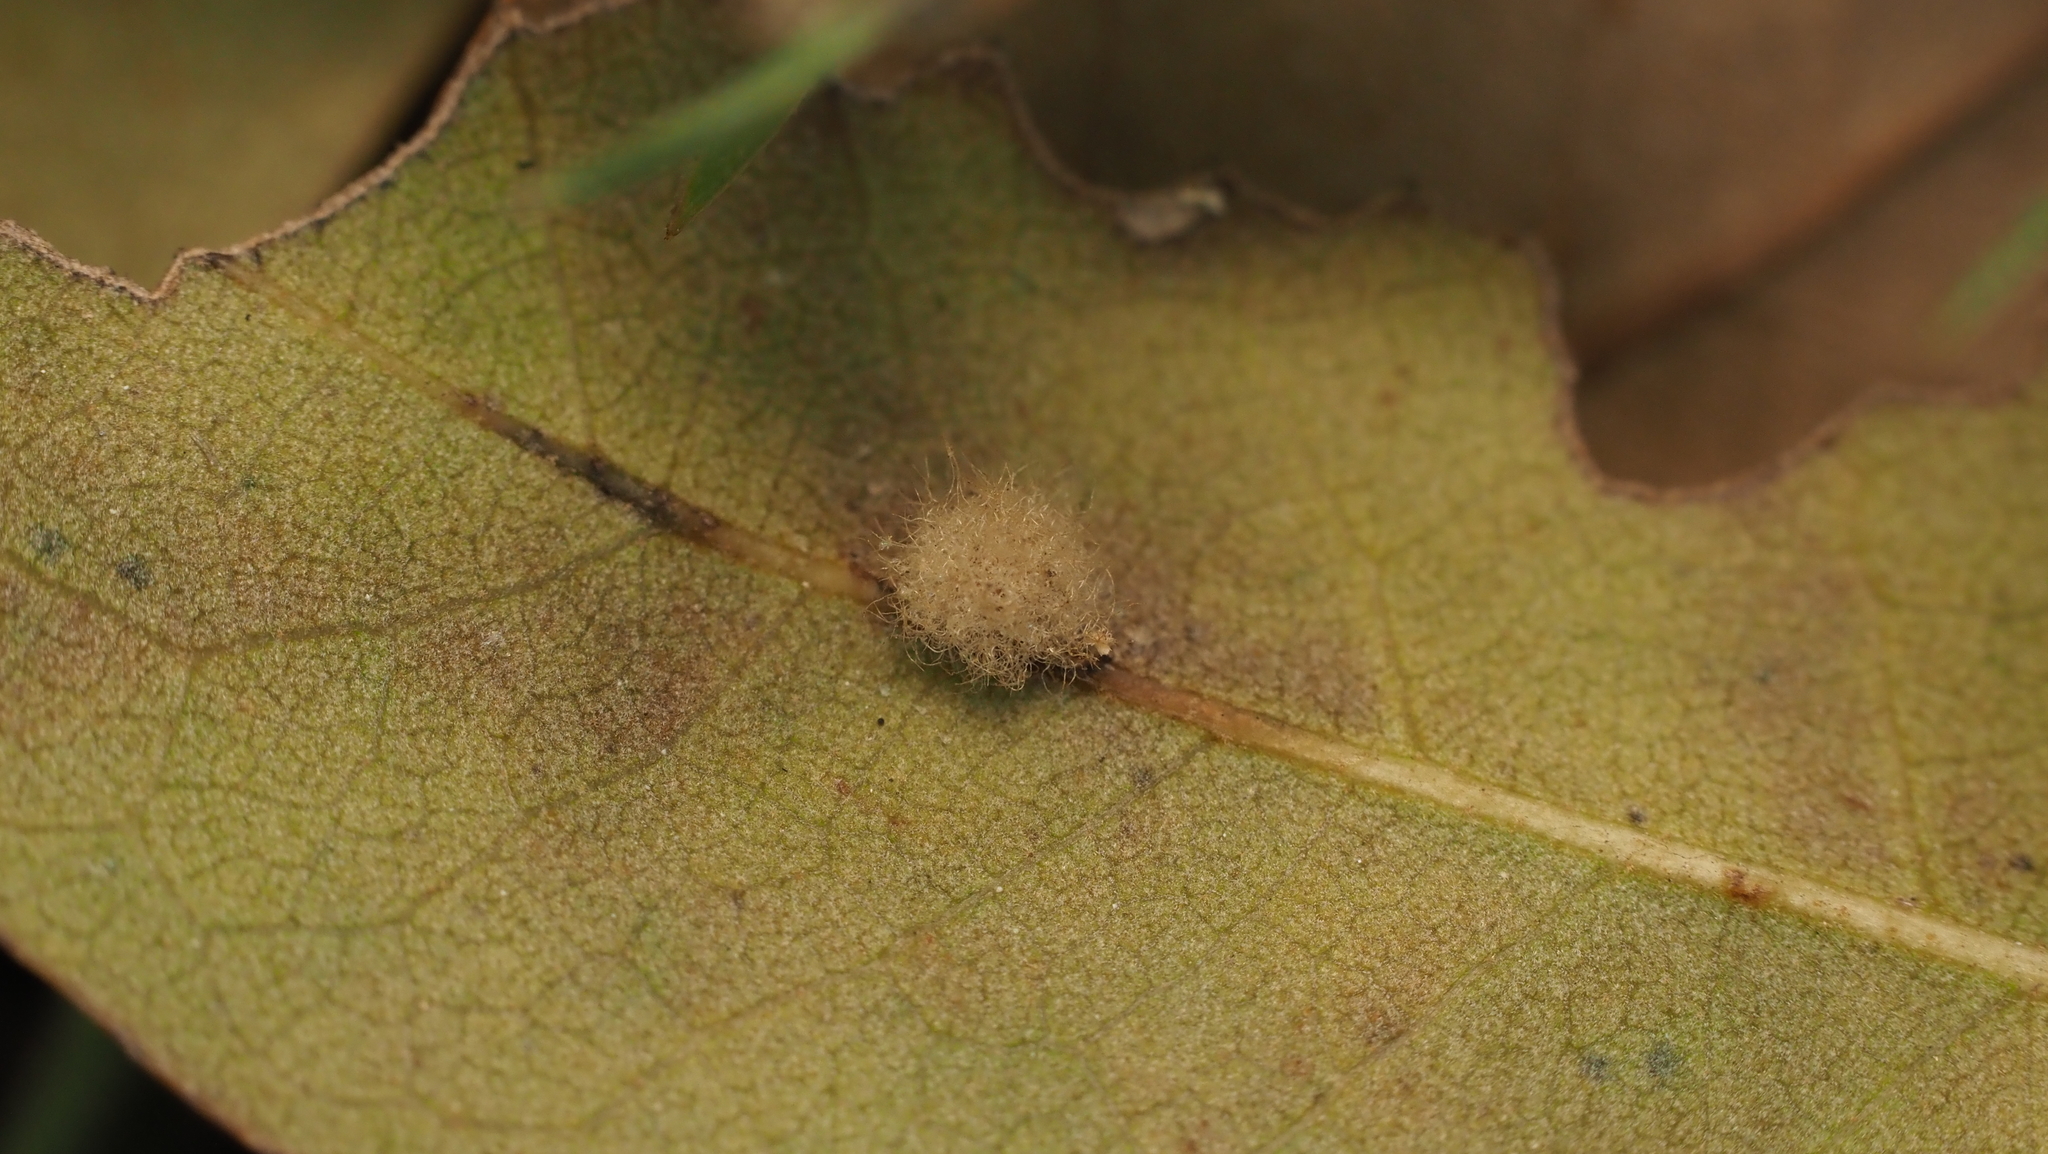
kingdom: Animalia
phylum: Arthropoda
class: Insecta
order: Hymenoptera
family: Cynipidae
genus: Andricus
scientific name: Andricus Druon quercuslanigerum
